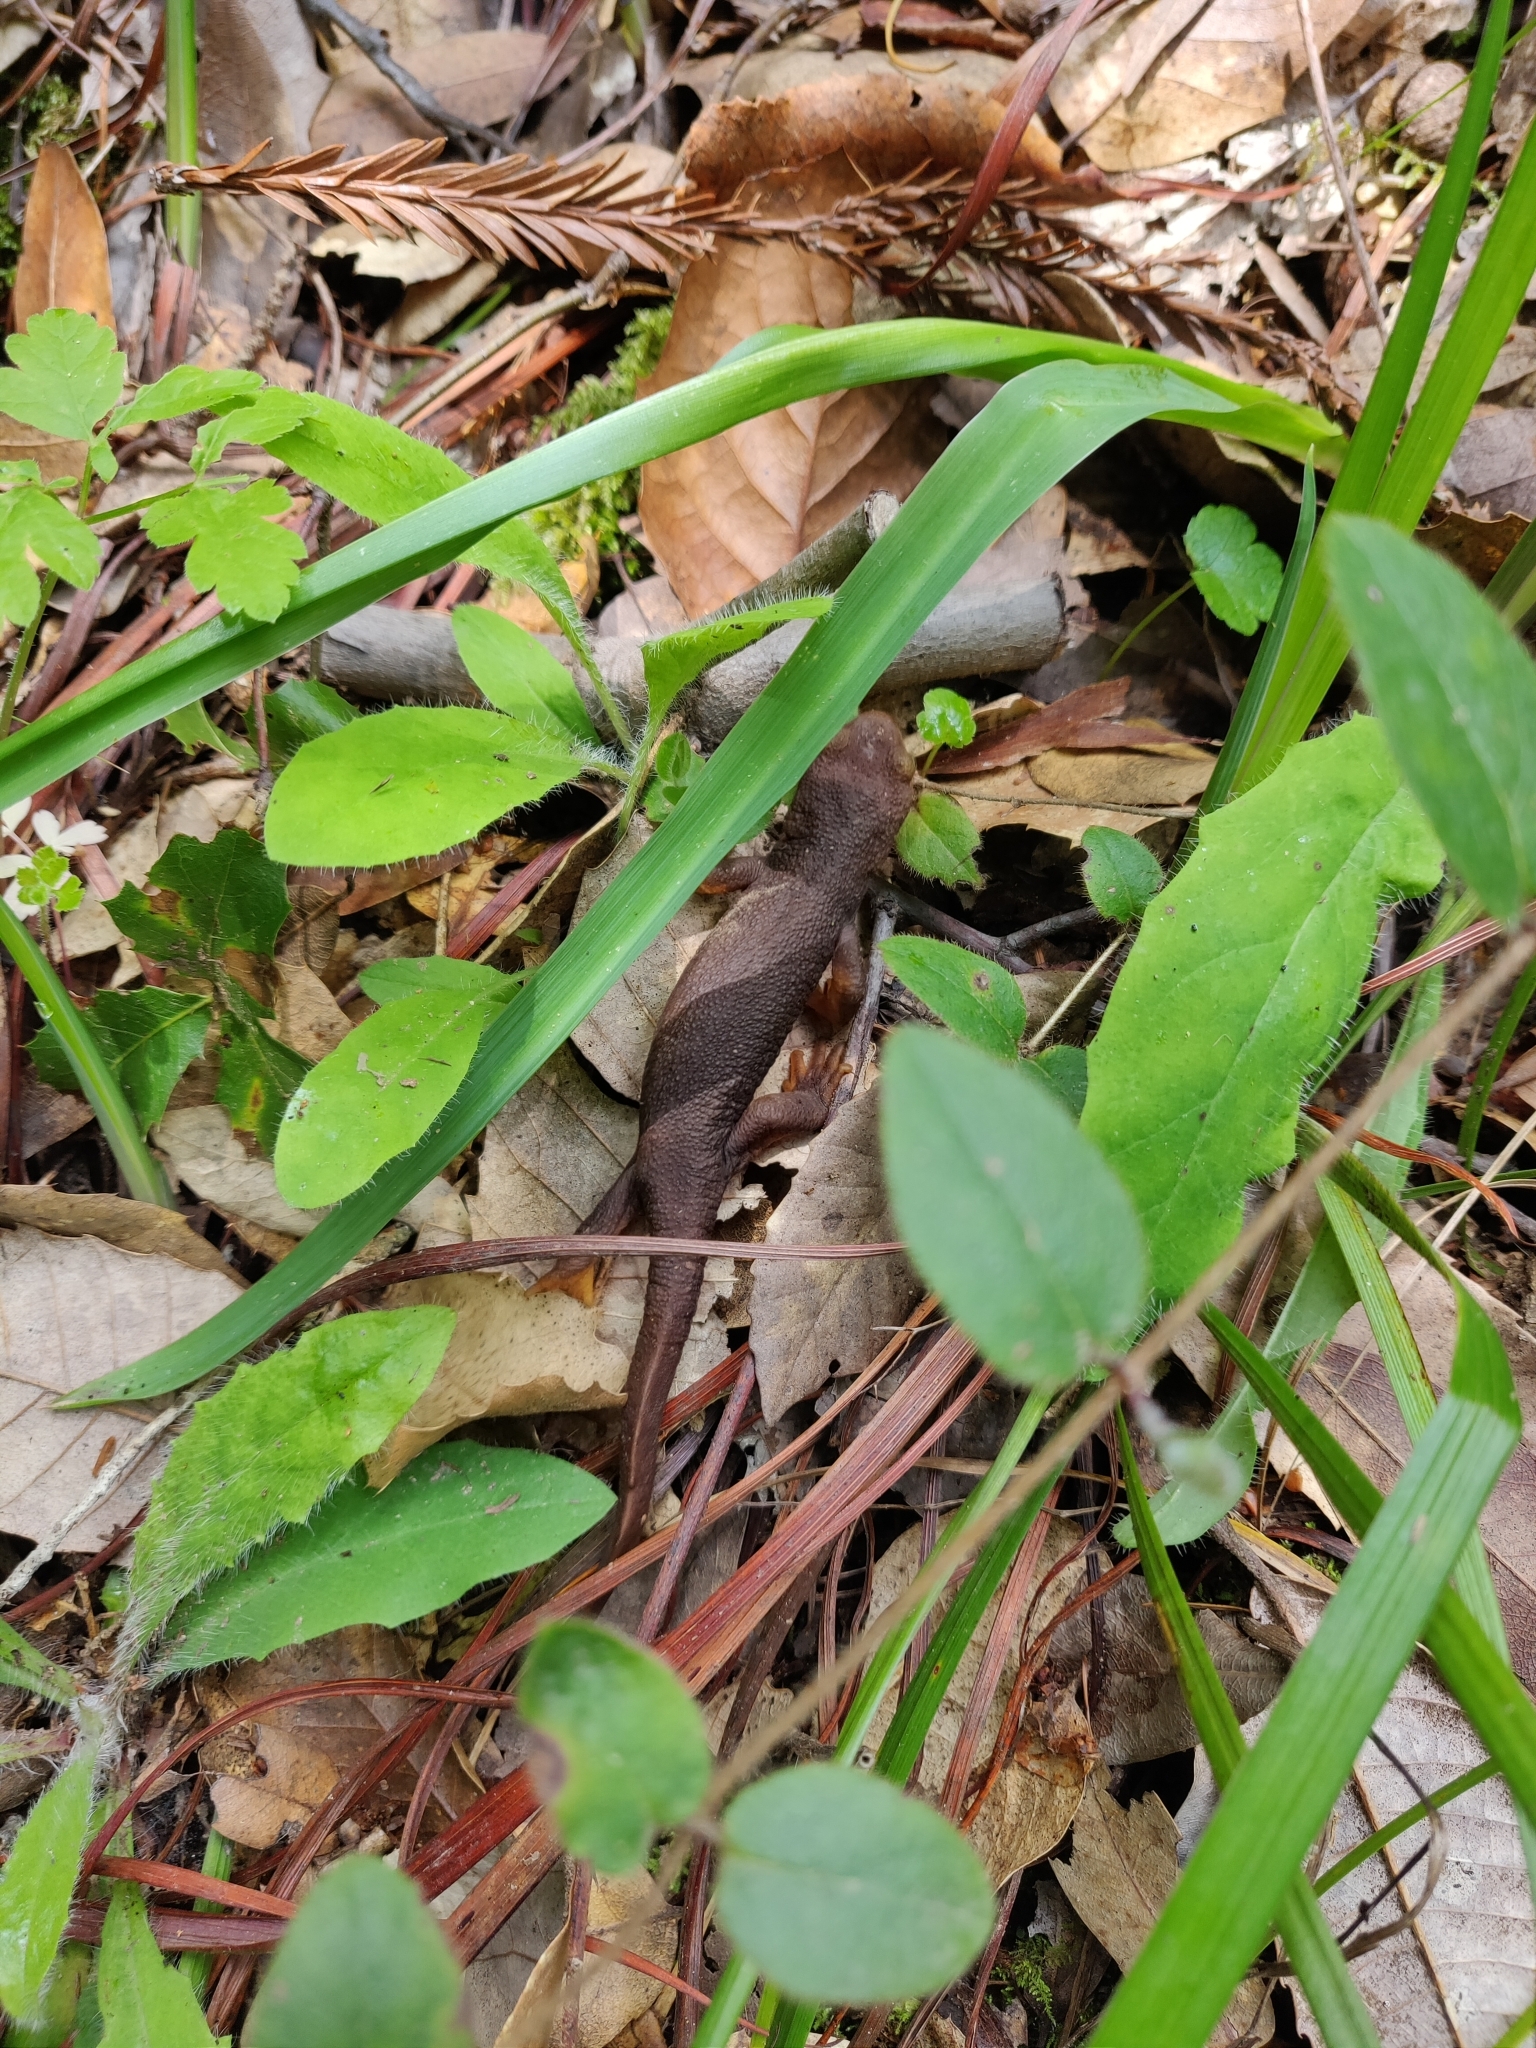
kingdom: Animalia
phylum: Chordata
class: Amphibia
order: Caudata
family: Salamandridae
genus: Taricha
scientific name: Taricha torosa
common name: California newt
